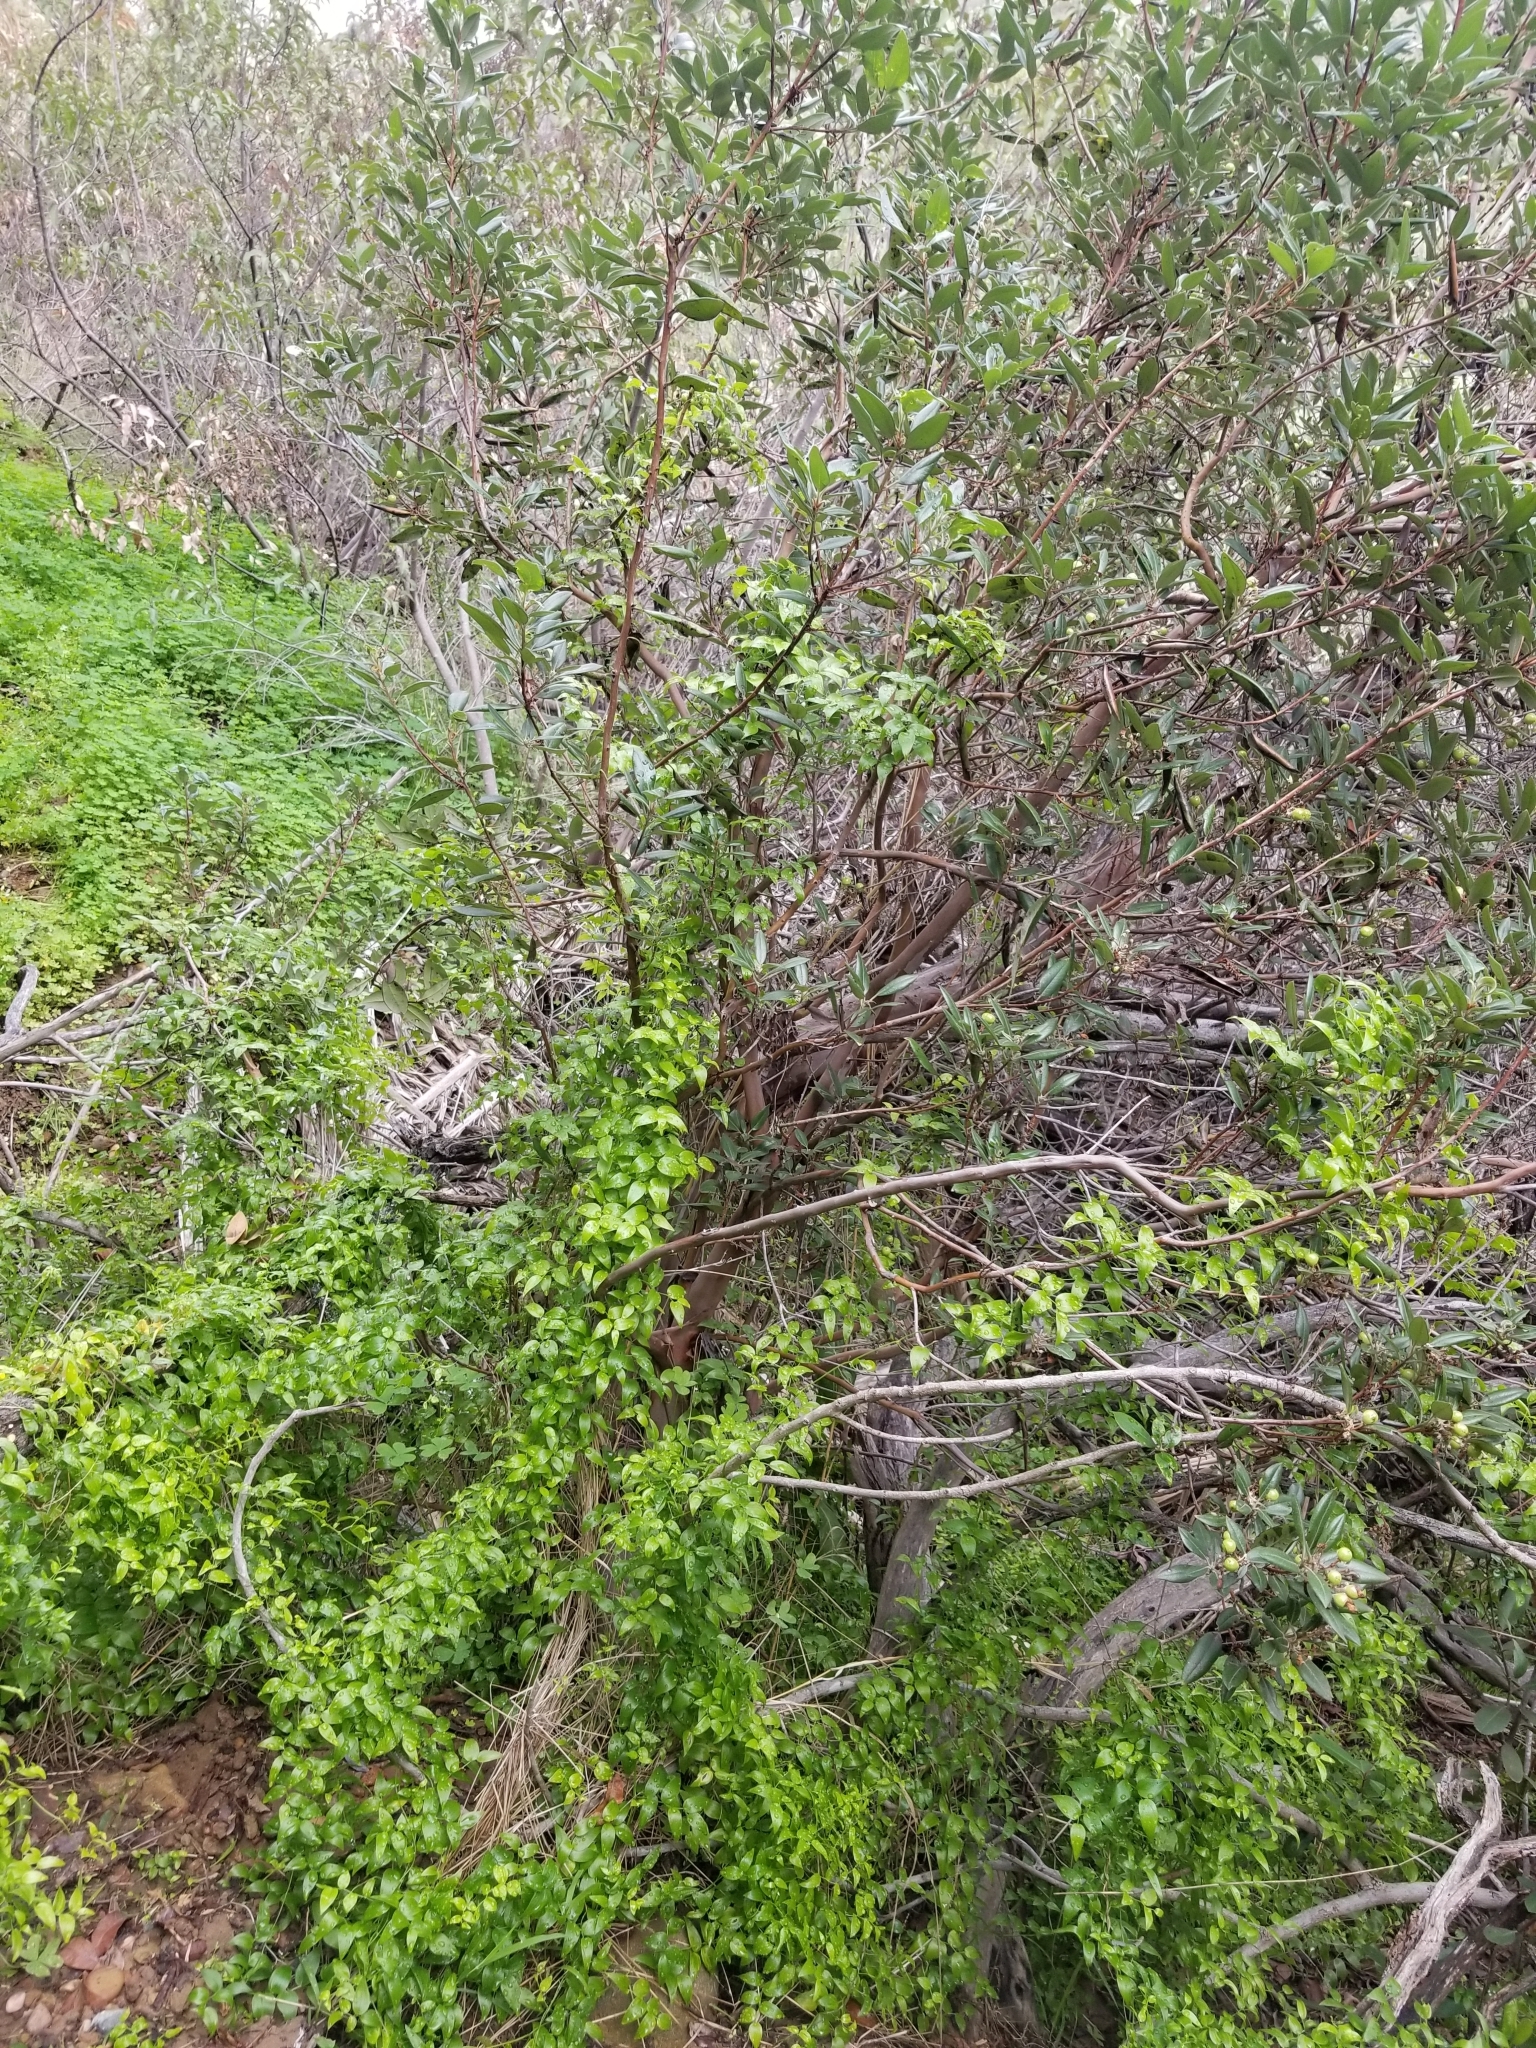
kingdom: Plantae
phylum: Tracheophyta
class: Magnoliopsida
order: Ericales
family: Ericaceae
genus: Arctostaphylos
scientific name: Arctostaphylos bicolor
